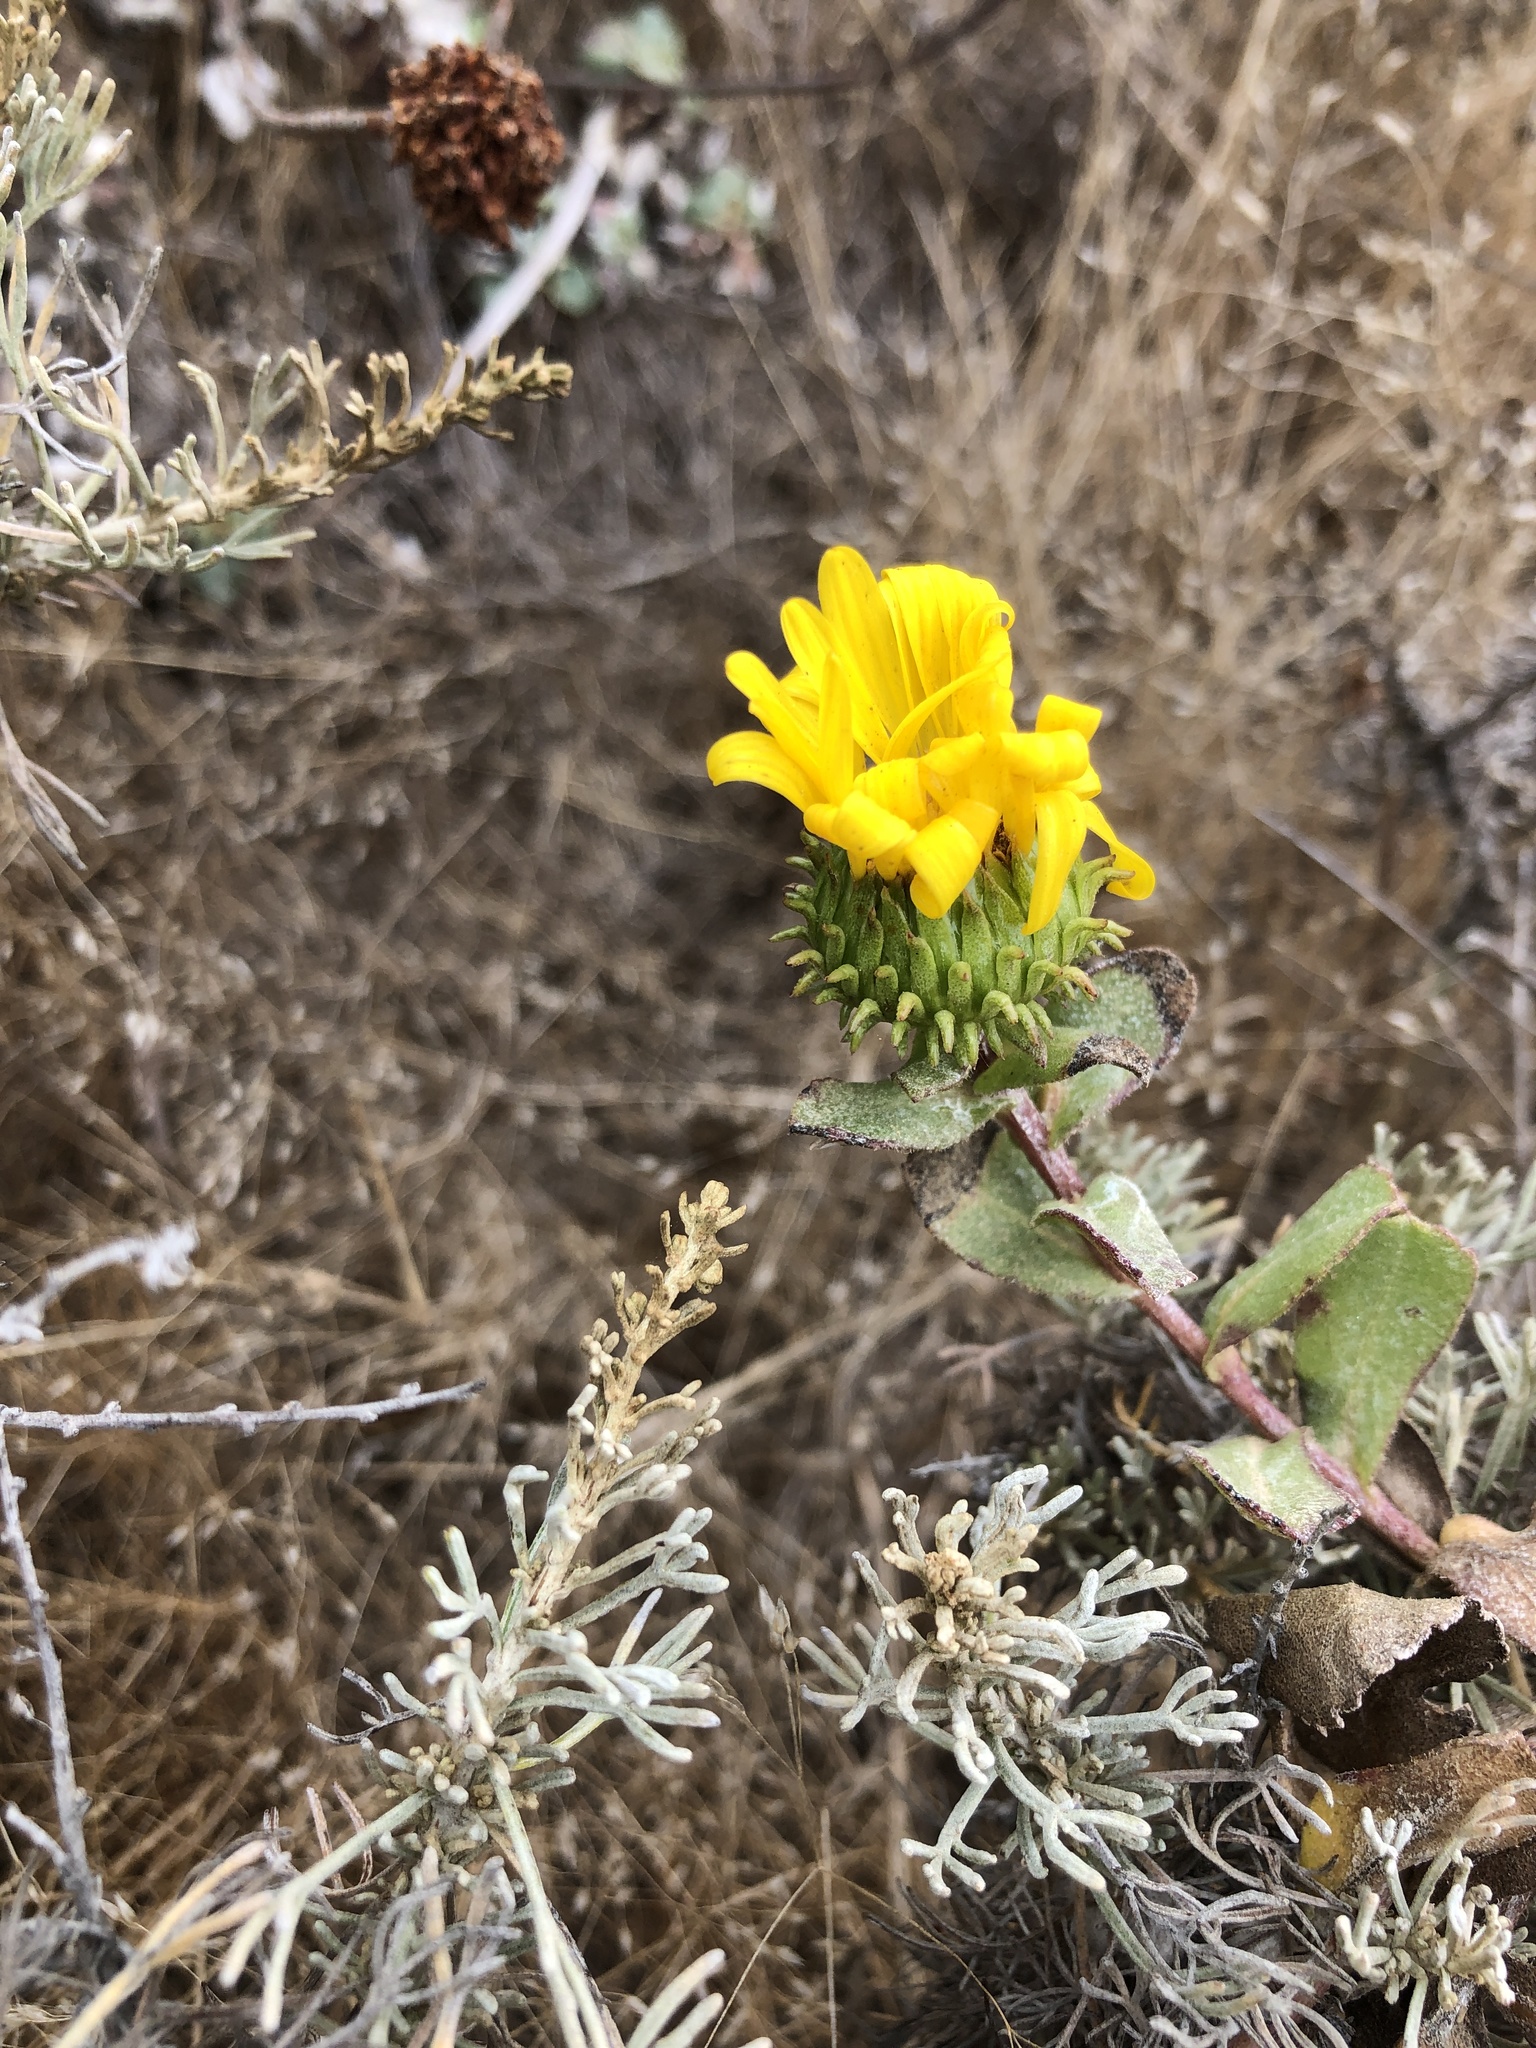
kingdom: Plantae
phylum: Tracheophyta
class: Magnoliopsida
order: Asterales
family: Asteraceae
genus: Grindelia
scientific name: Grindelia hirsutula
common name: Hairy gumweed
